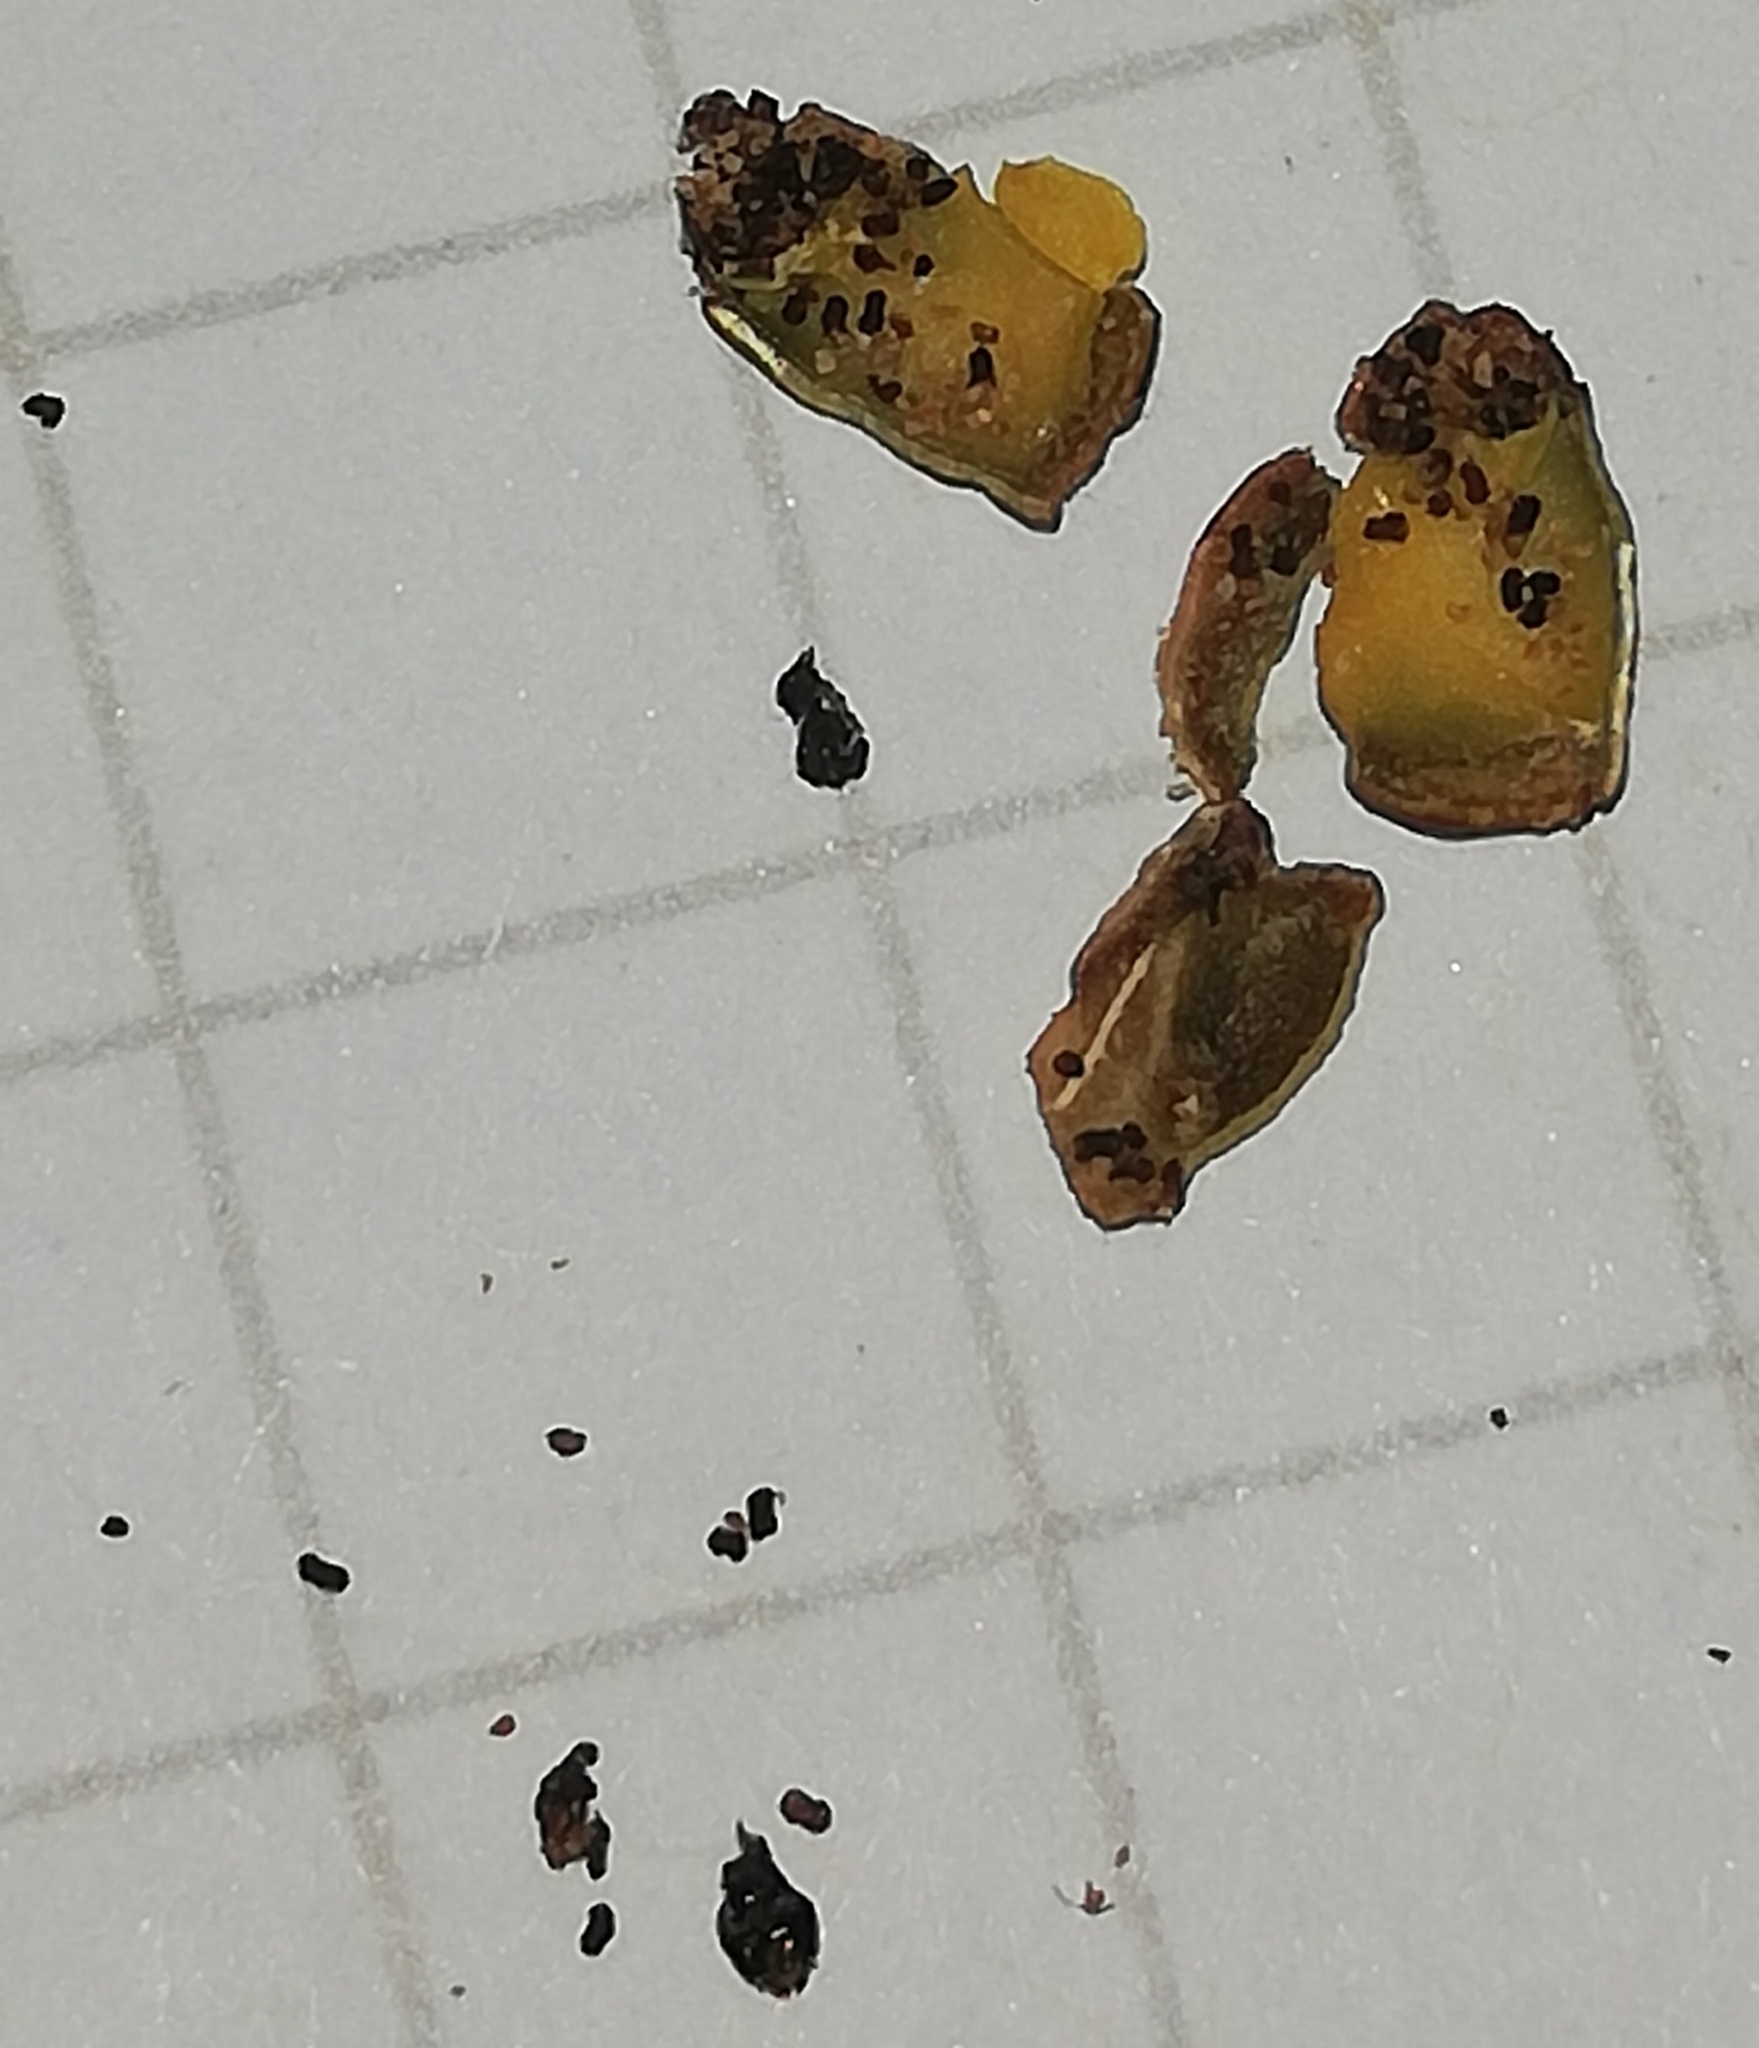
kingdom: Plantae
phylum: Tracheophyta
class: Magnoliopsida
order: Fabales
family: Fabaceae
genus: Lathyrus
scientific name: Lathyrus tuberosus
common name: Tuberous pea
